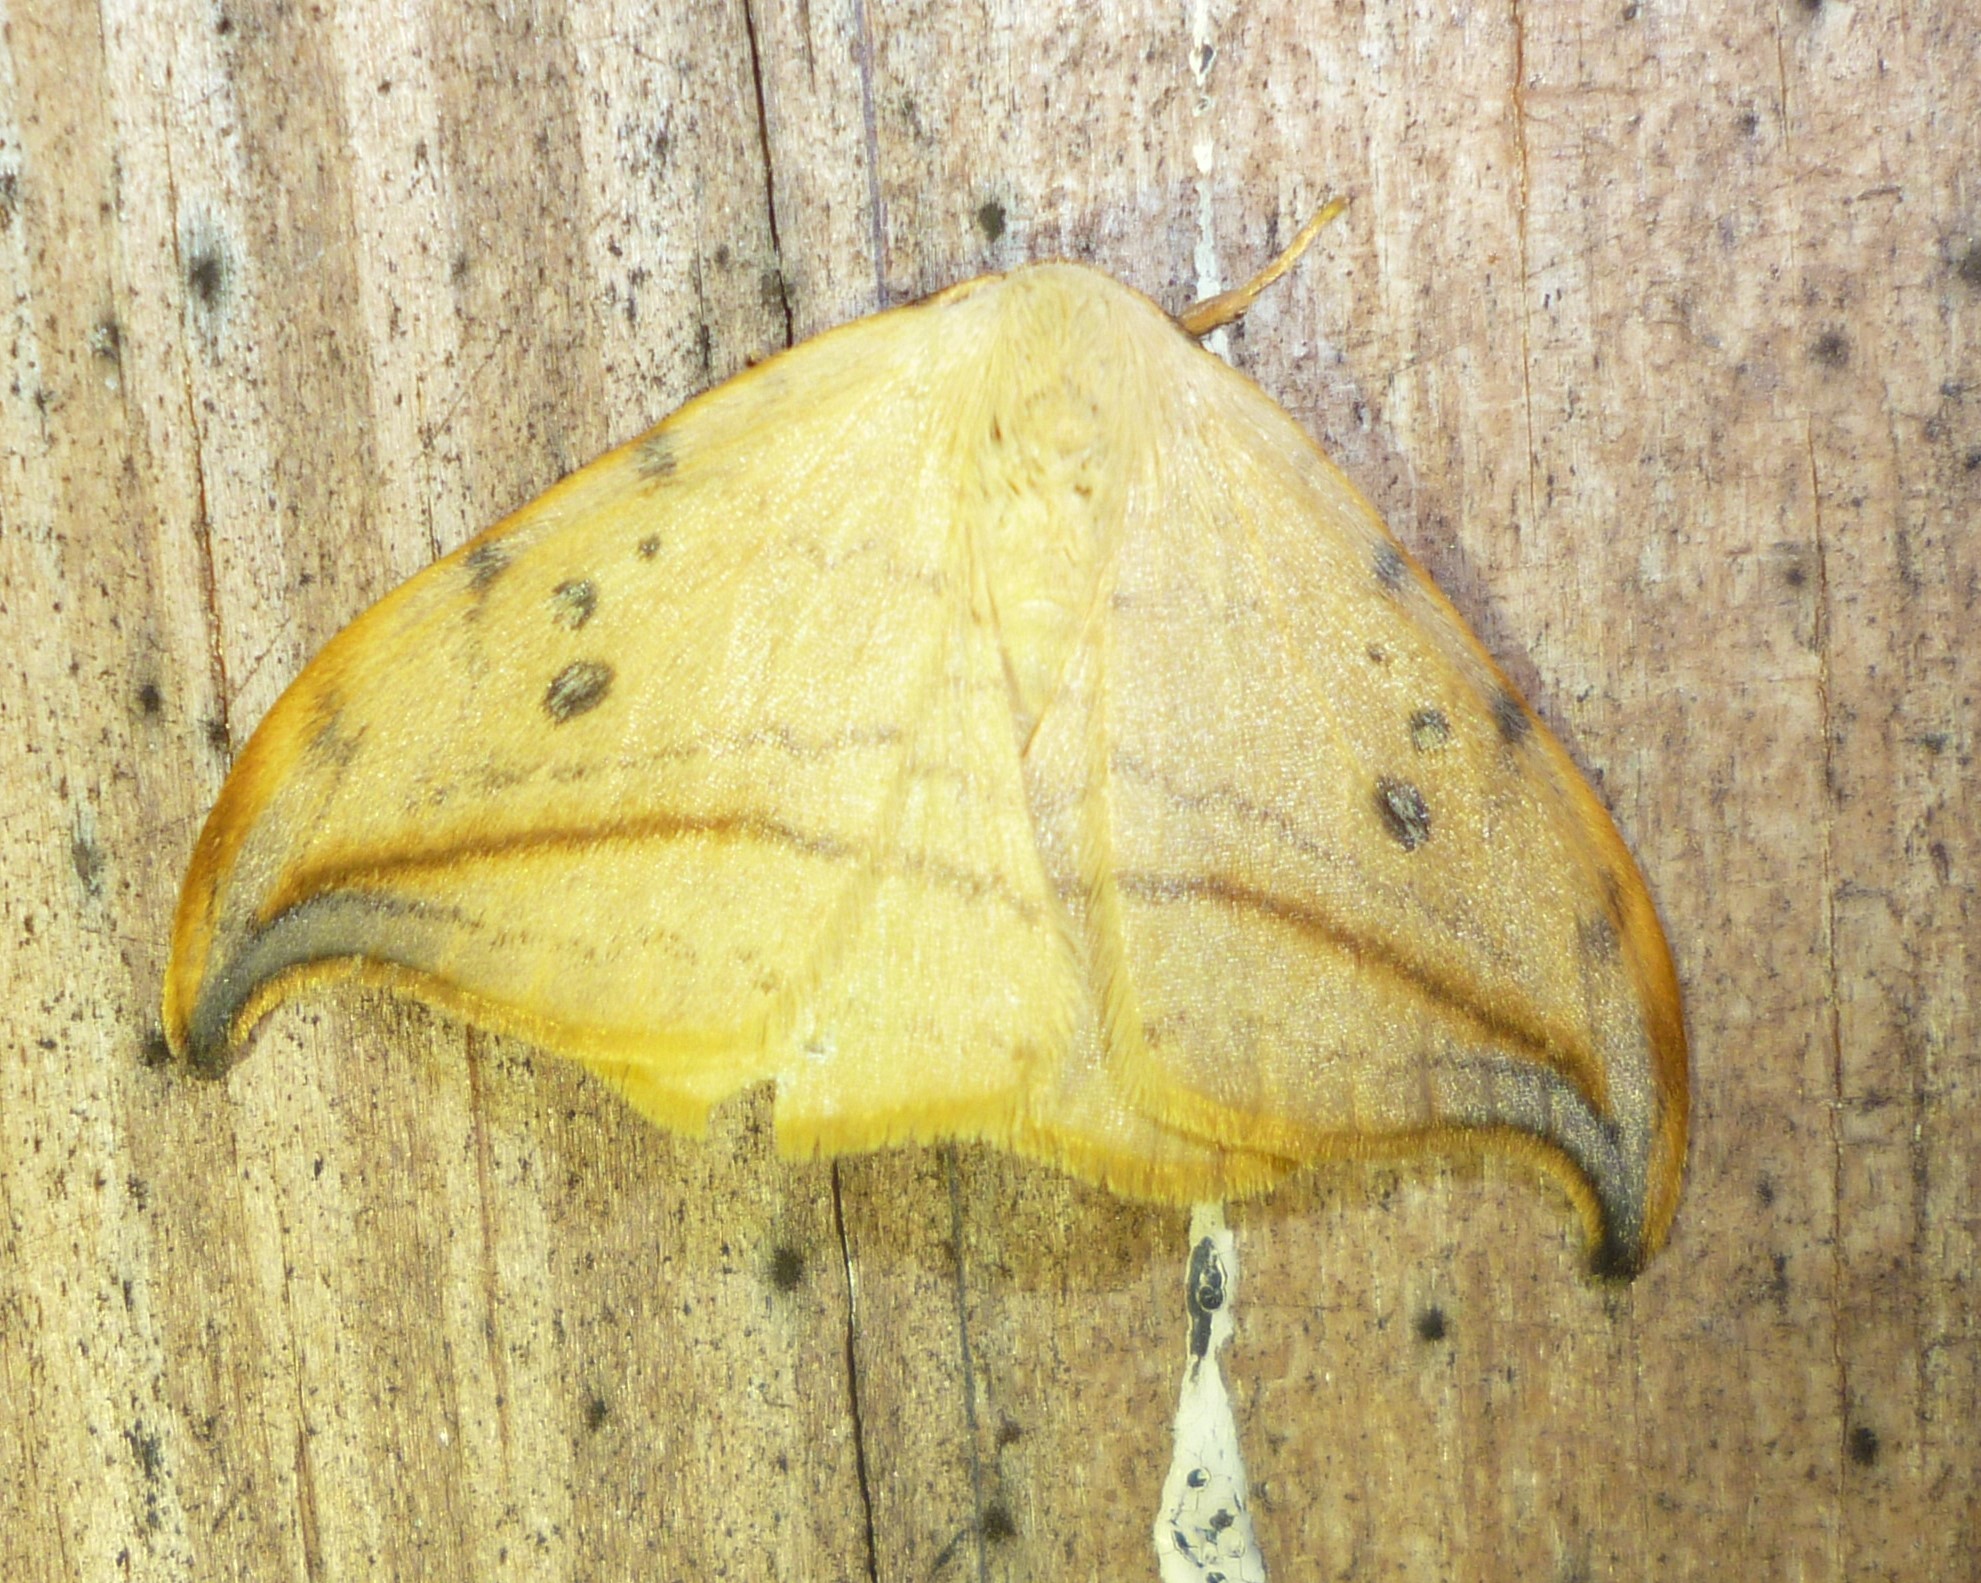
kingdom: Animalia
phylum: Arthropoda
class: Insecta
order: Lepidoptera
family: Drepanidae
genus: Drepana
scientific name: Drepana arcuata
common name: Arched hooktip moth
